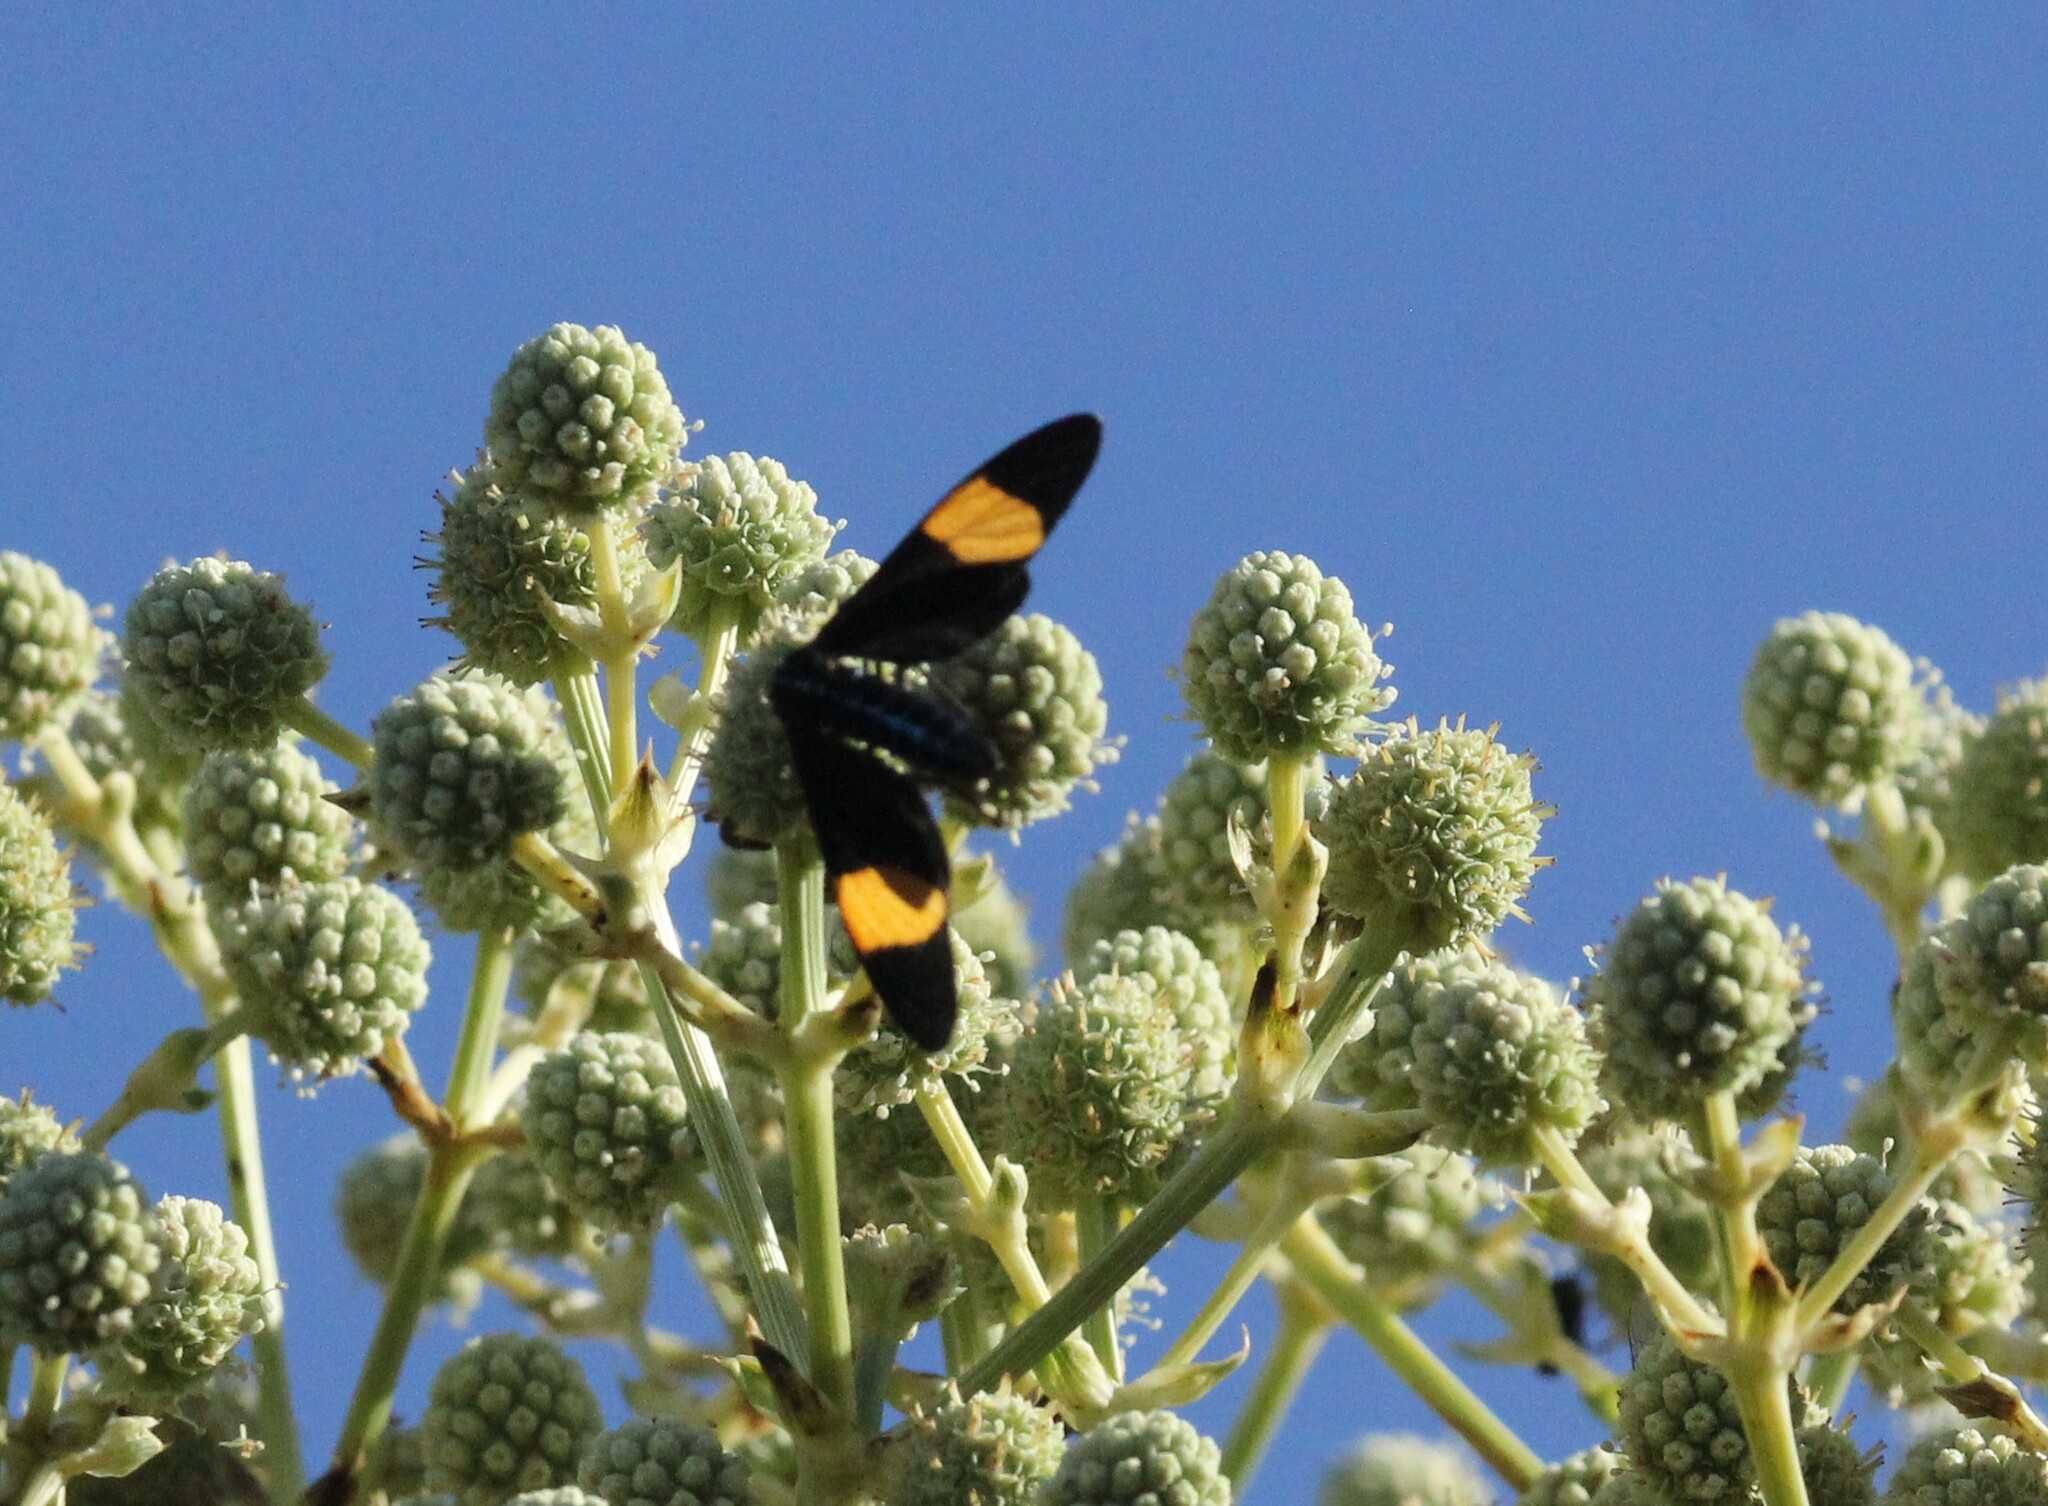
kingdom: Animalia
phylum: Arthropoda
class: Insecta
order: Lepidoptera
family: Erebidae
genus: Cyanopepla
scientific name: Cyanopepla similis
